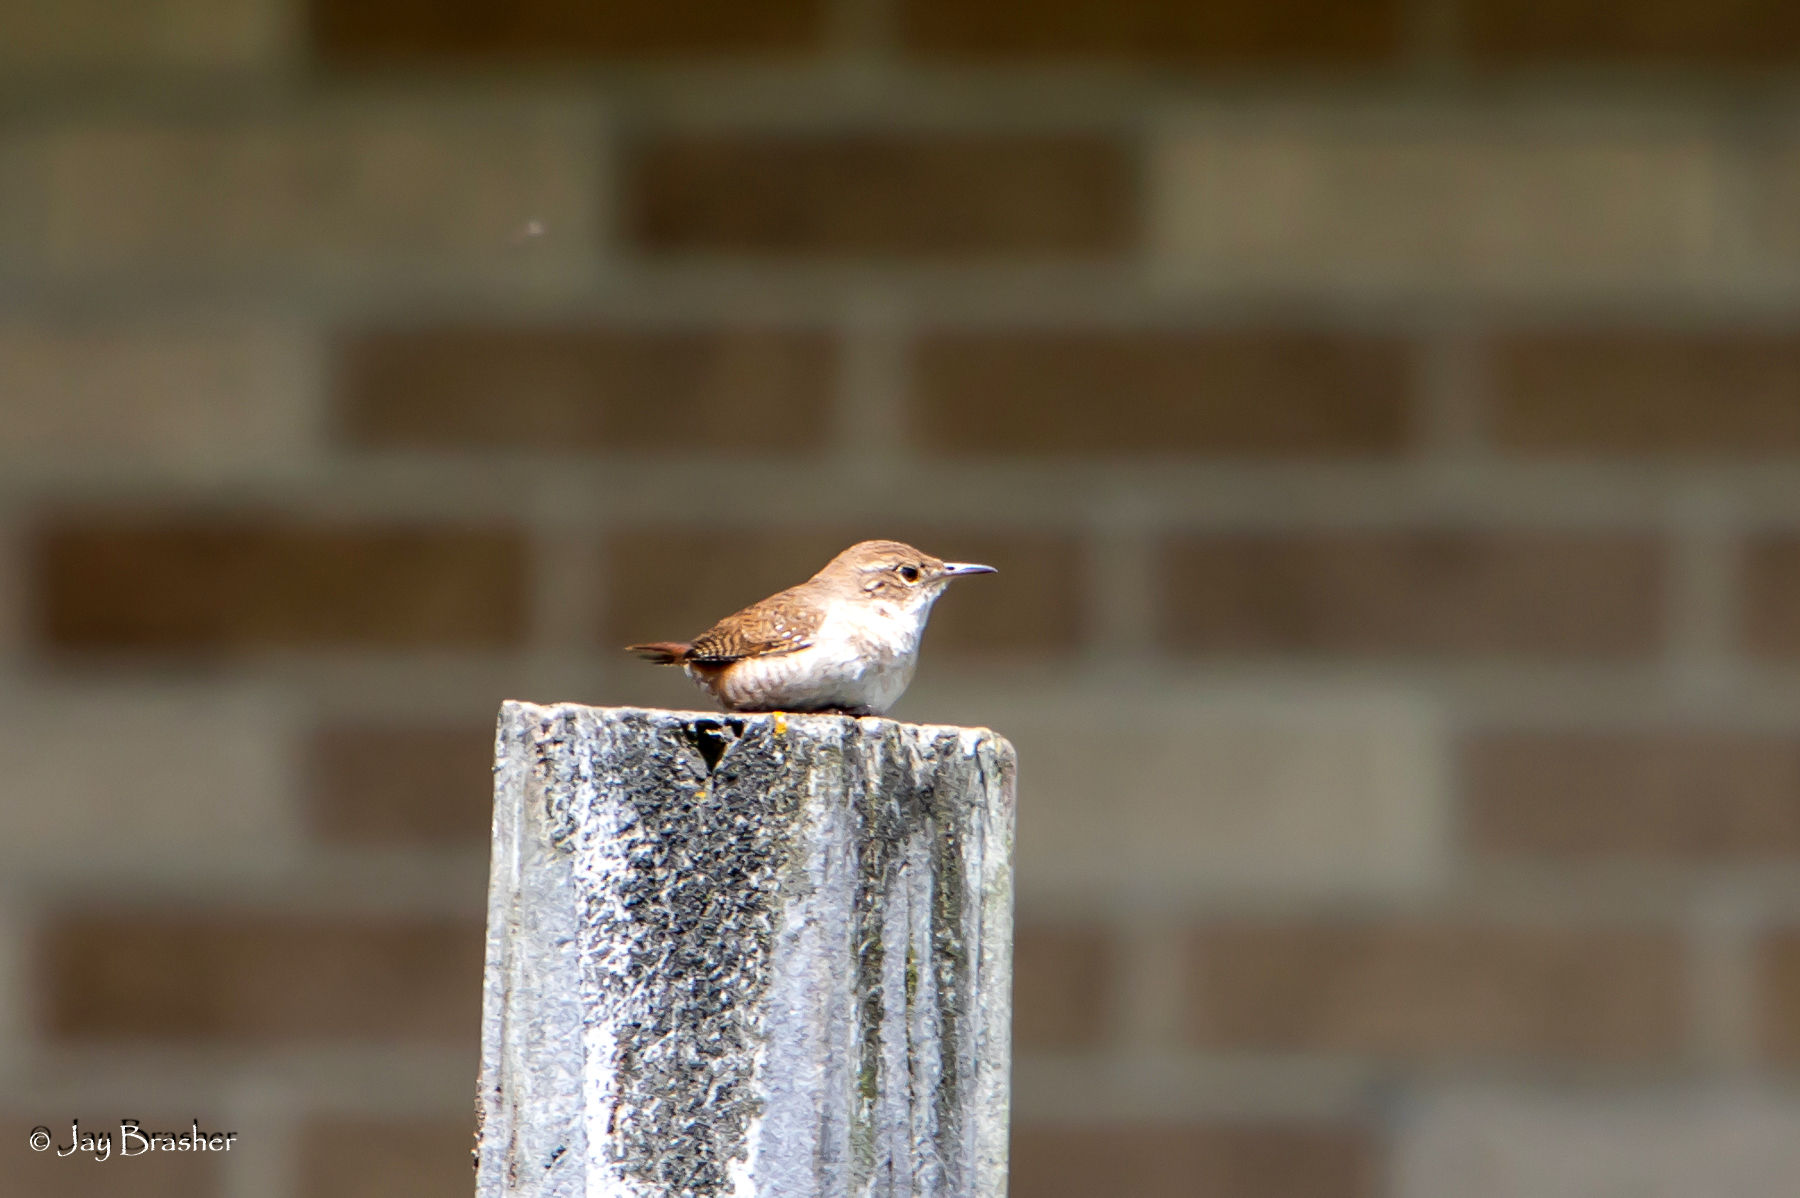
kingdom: Animalia
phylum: Chordata
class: Aves
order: Passeriformes
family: Troglodytidae
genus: Troglodytes
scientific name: Troglodytes aedon
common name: House wren
